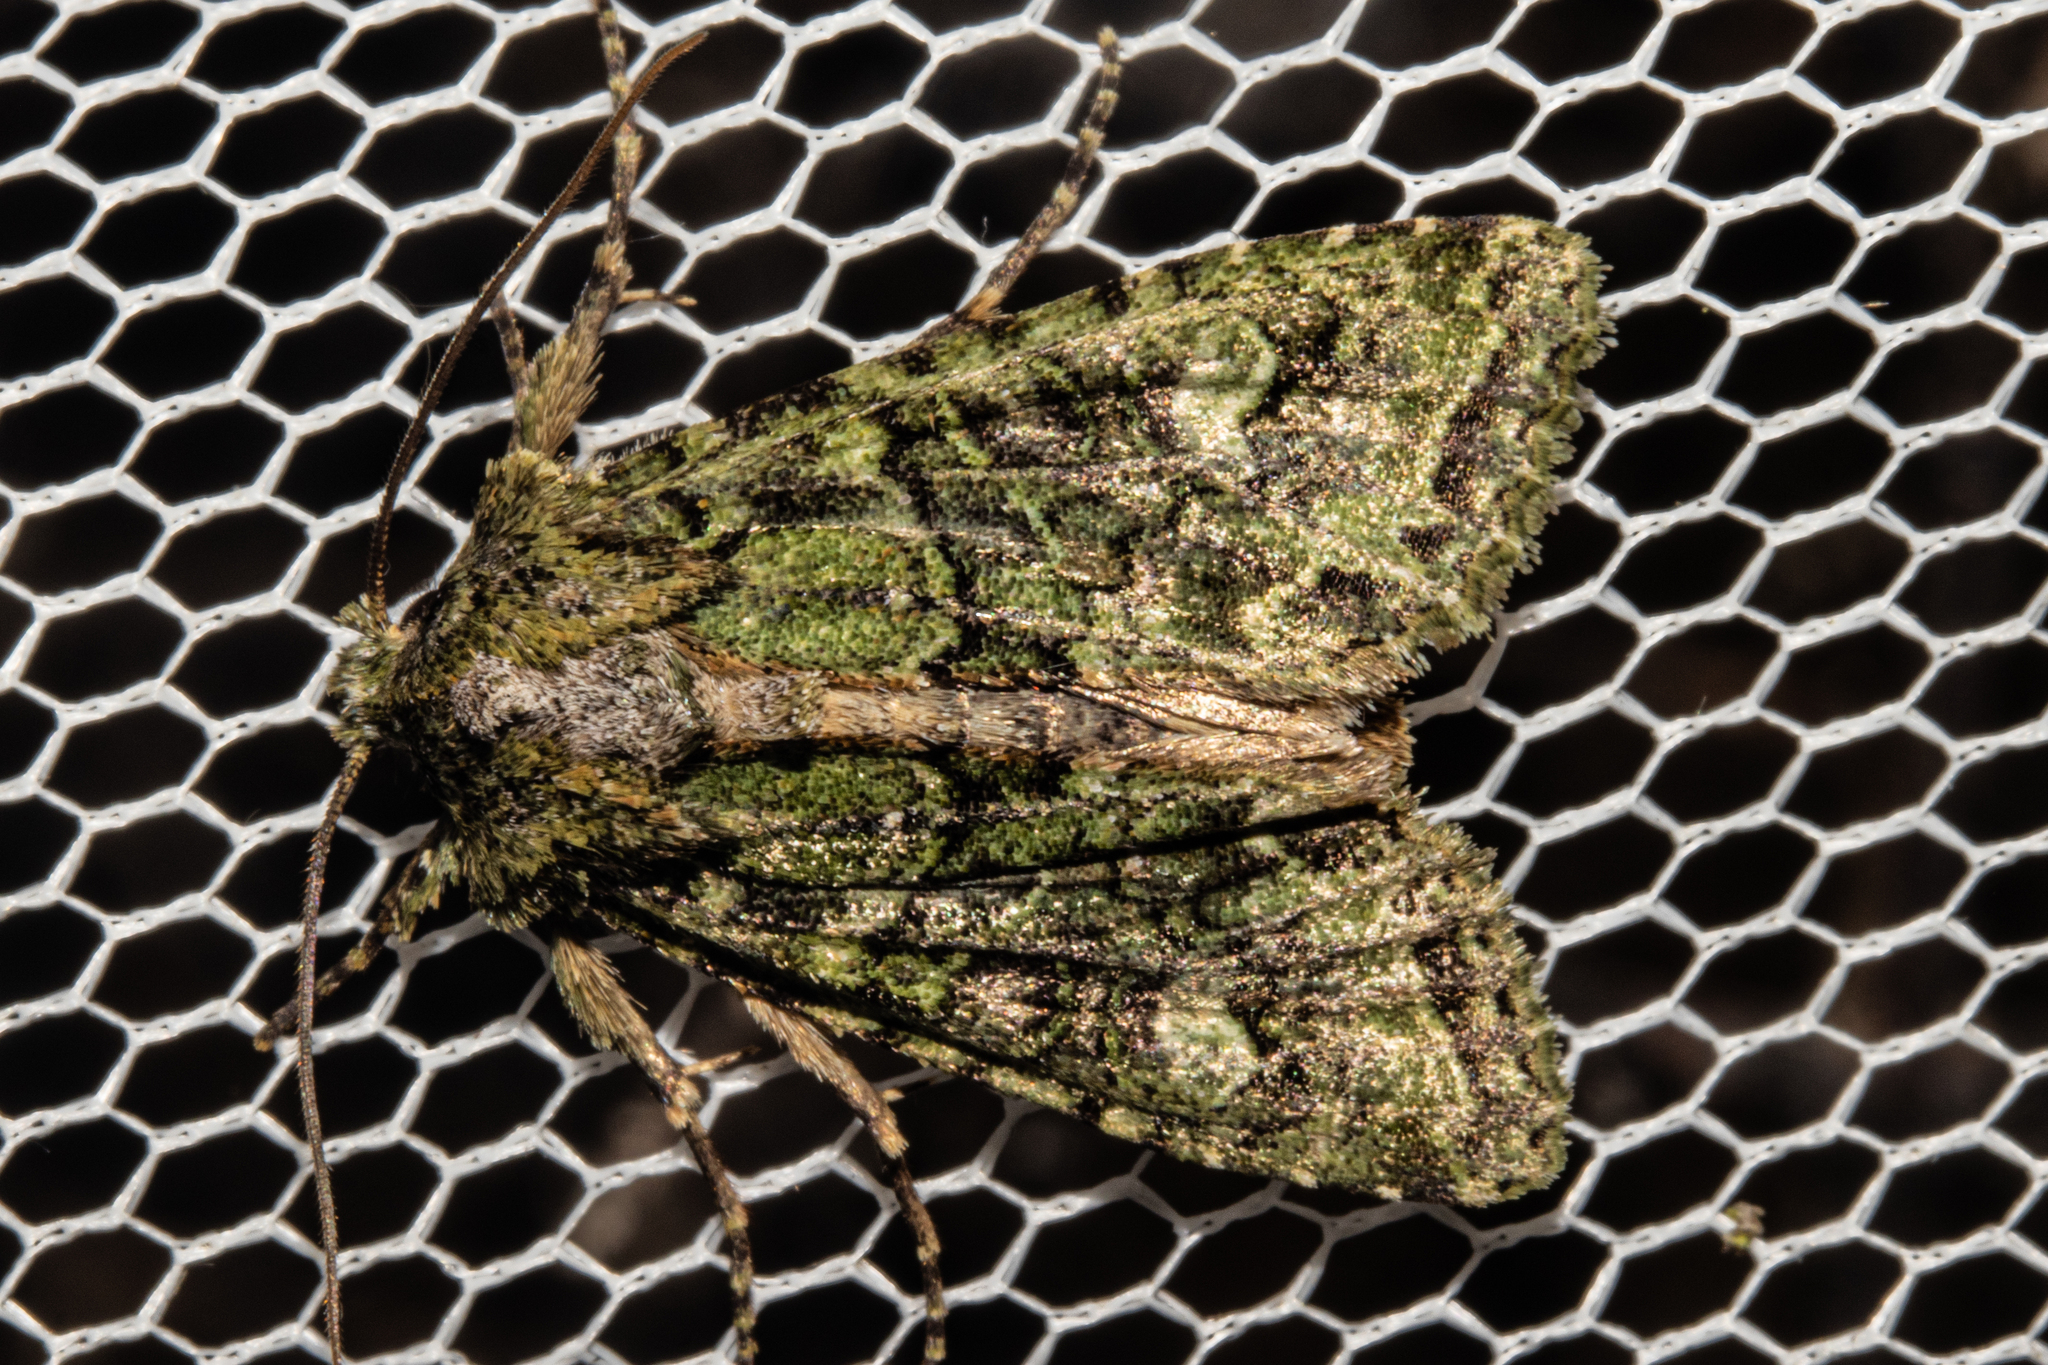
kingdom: Animalia
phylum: Arthropoda
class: Insecta
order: Lepidoptera
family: Noctuidae
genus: Ichneutica
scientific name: Ichneutica
